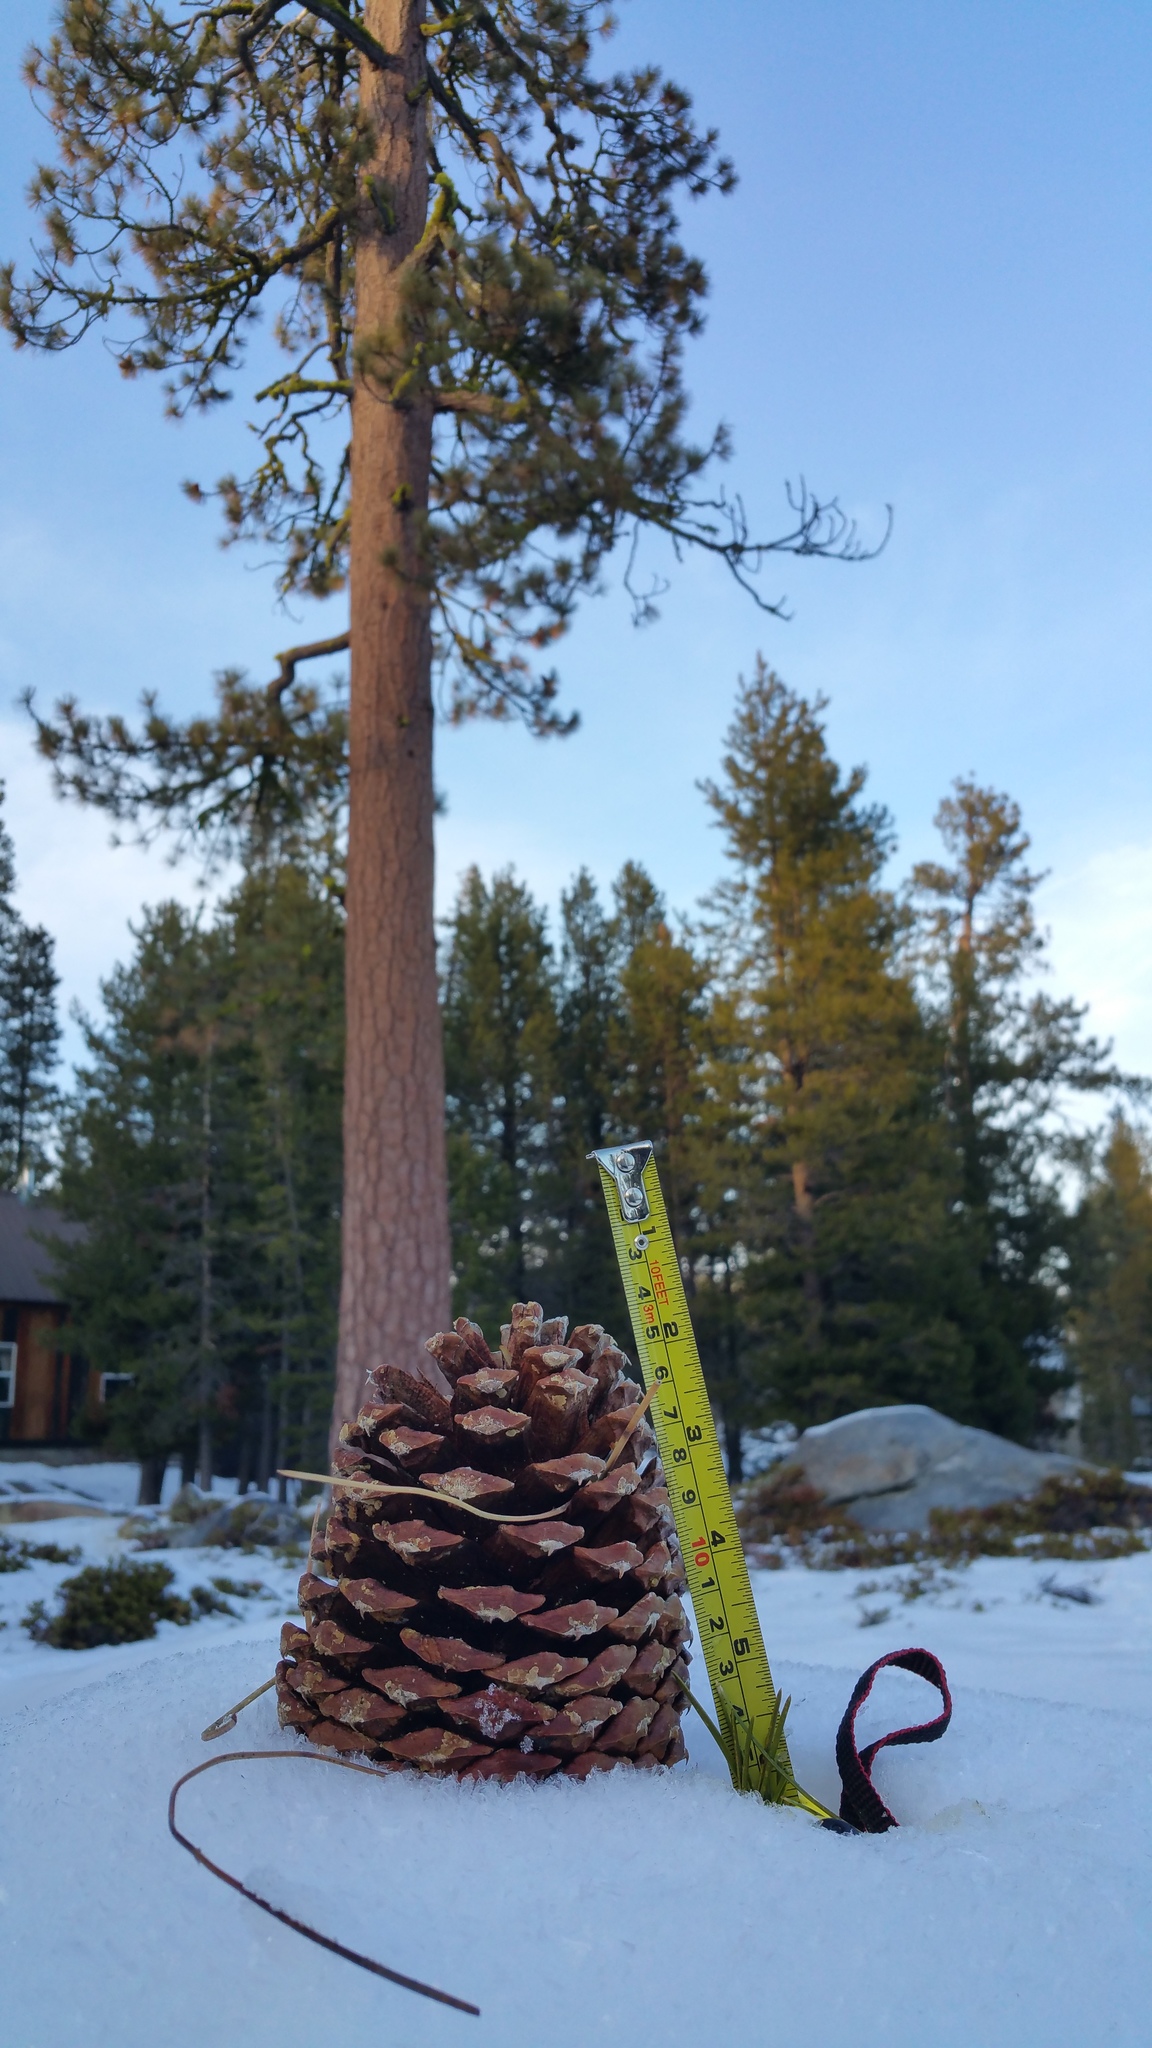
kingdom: Plantae
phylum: Tracheophyta
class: Pinopsida
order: Pinales
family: Pinaceae
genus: Pinus
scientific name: Pinus ponderosa
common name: Western yellow-pine
